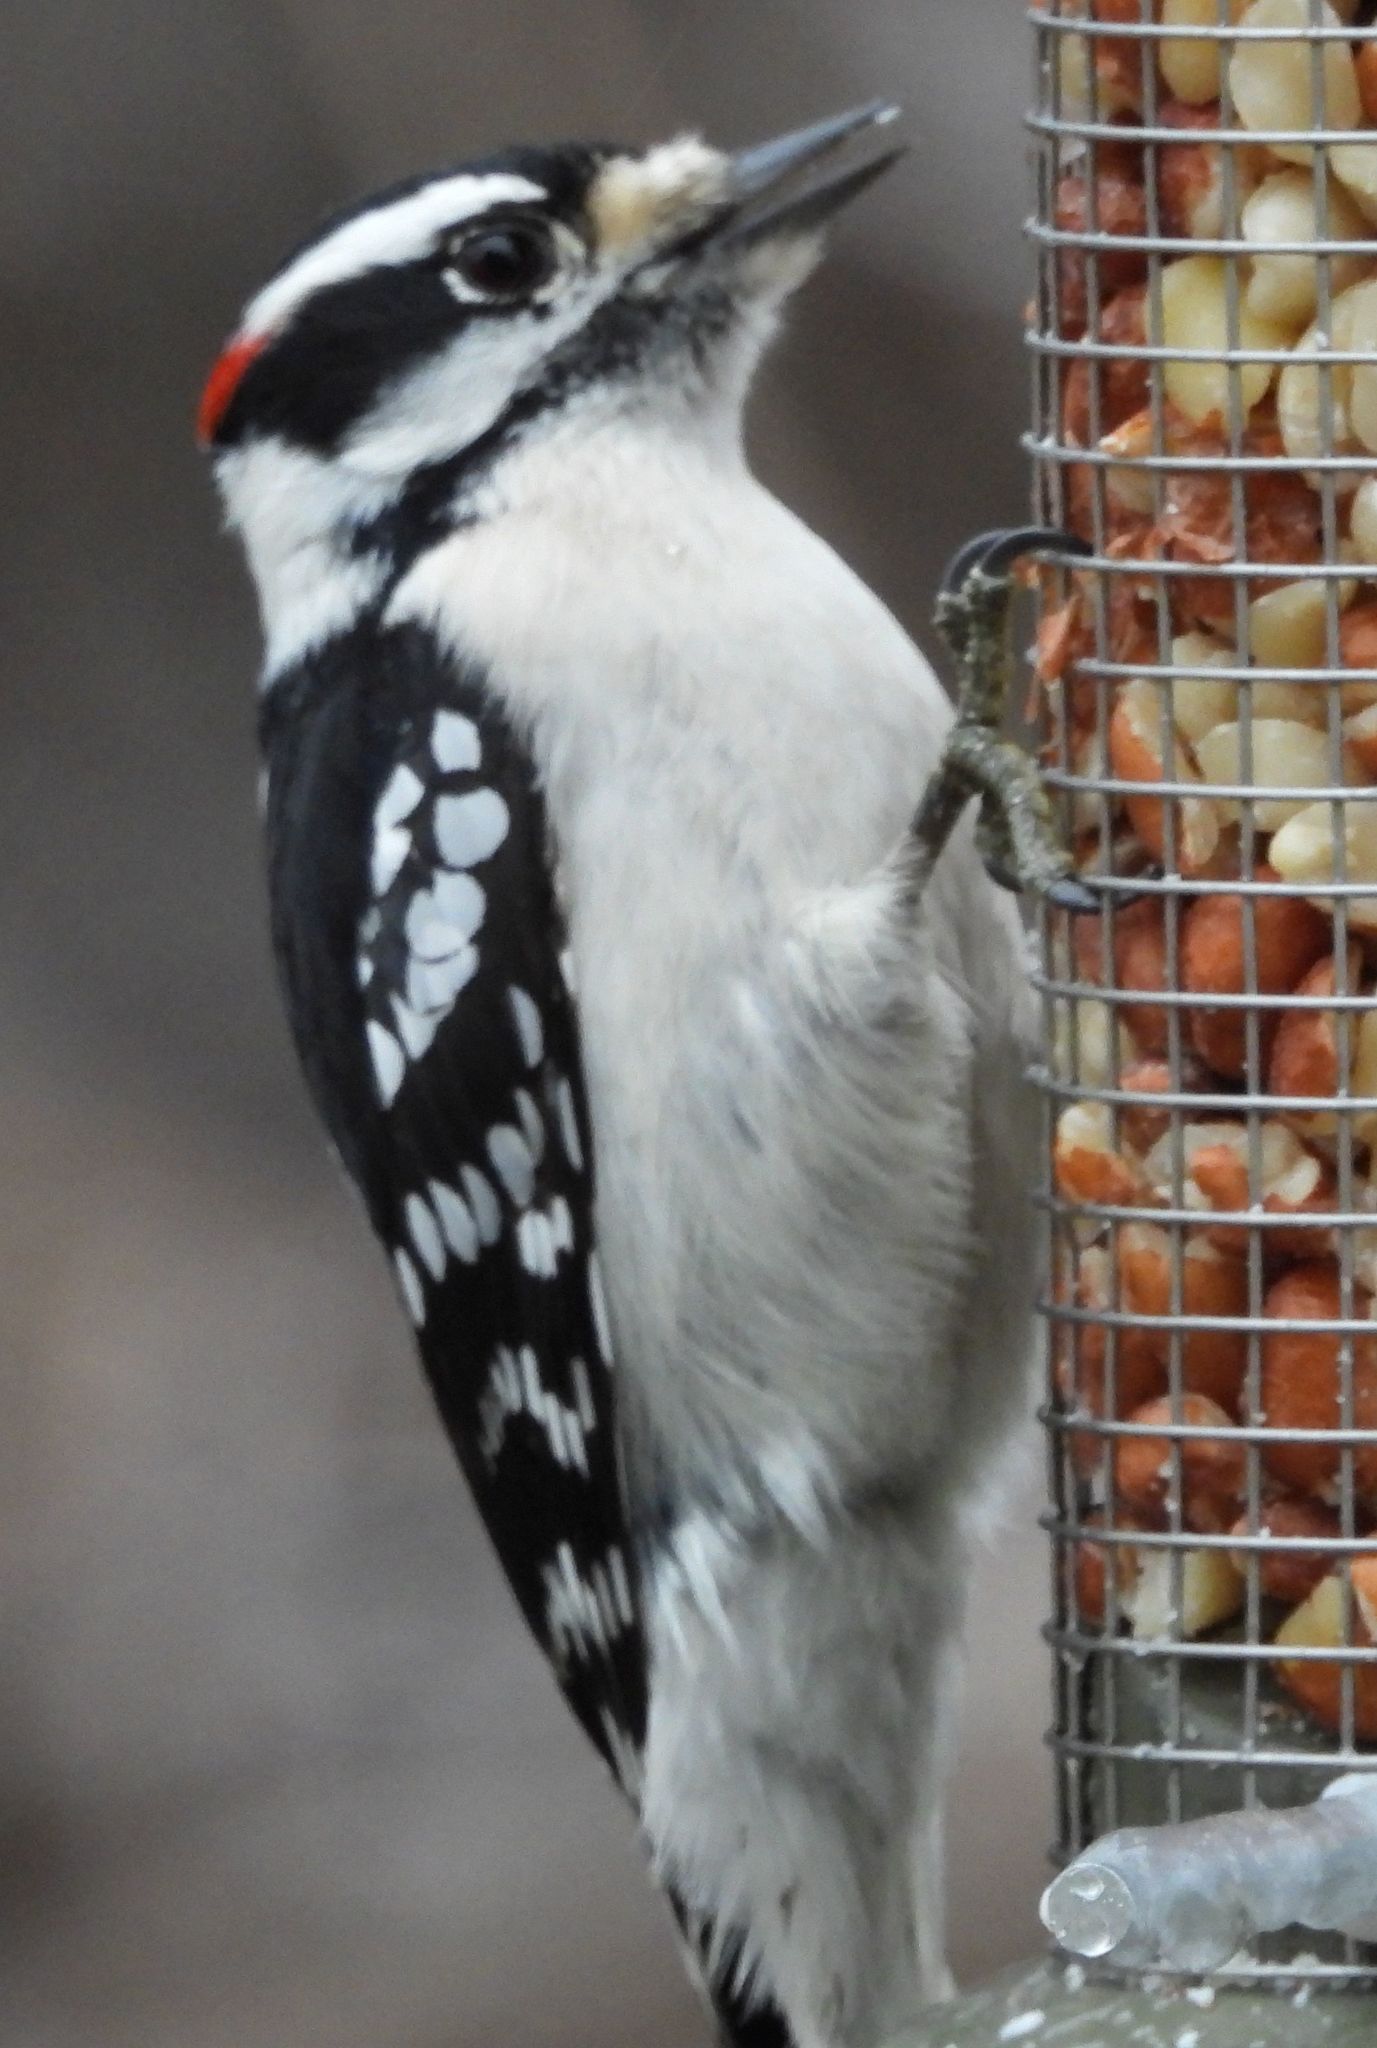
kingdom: Animalia
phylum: Chordata
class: Aves
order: Piciformes
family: Picidae
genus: Dryobates
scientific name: Dryobates pubescens
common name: Downy woodpecker
